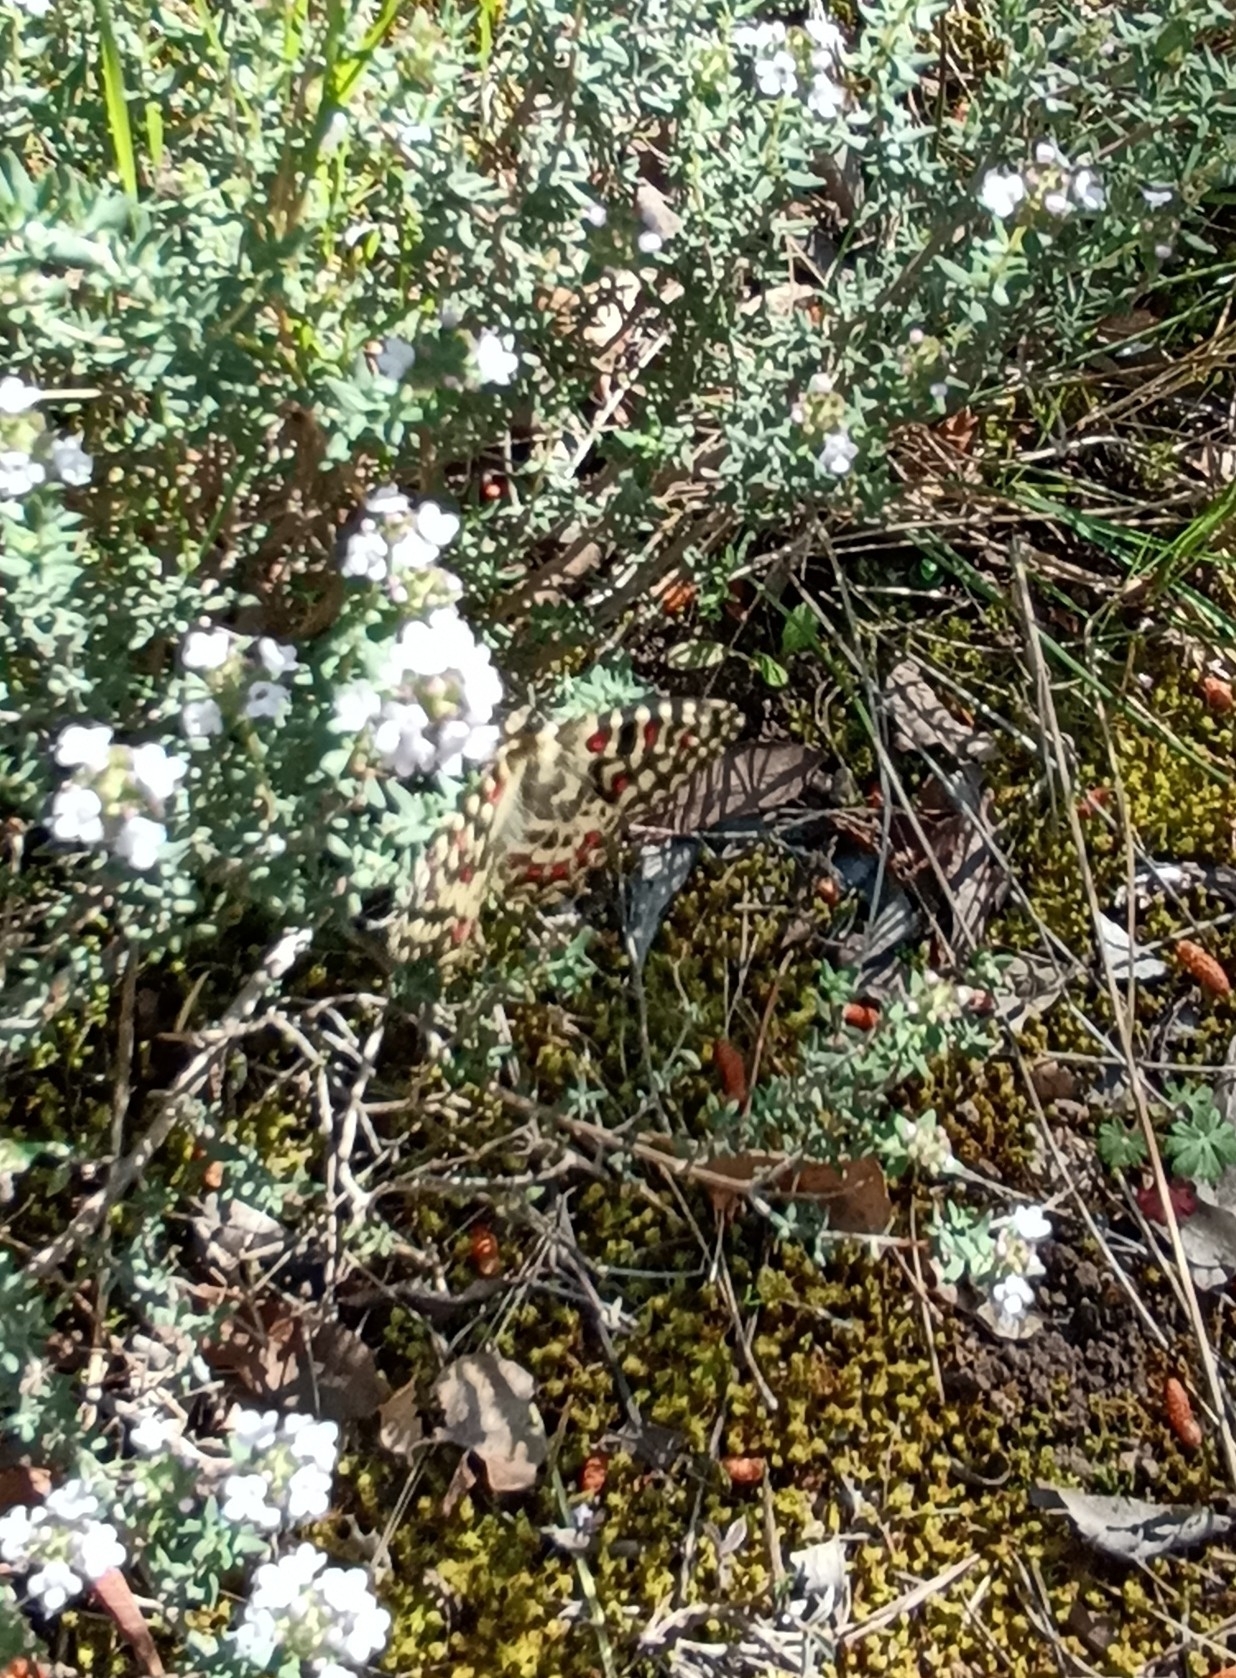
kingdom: Animalia
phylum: Arthropoda
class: Insecta
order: Lepidoptera
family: Papilionidae
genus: Zerynthia
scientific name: Zerynthia rumina
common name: Spanish festoon
